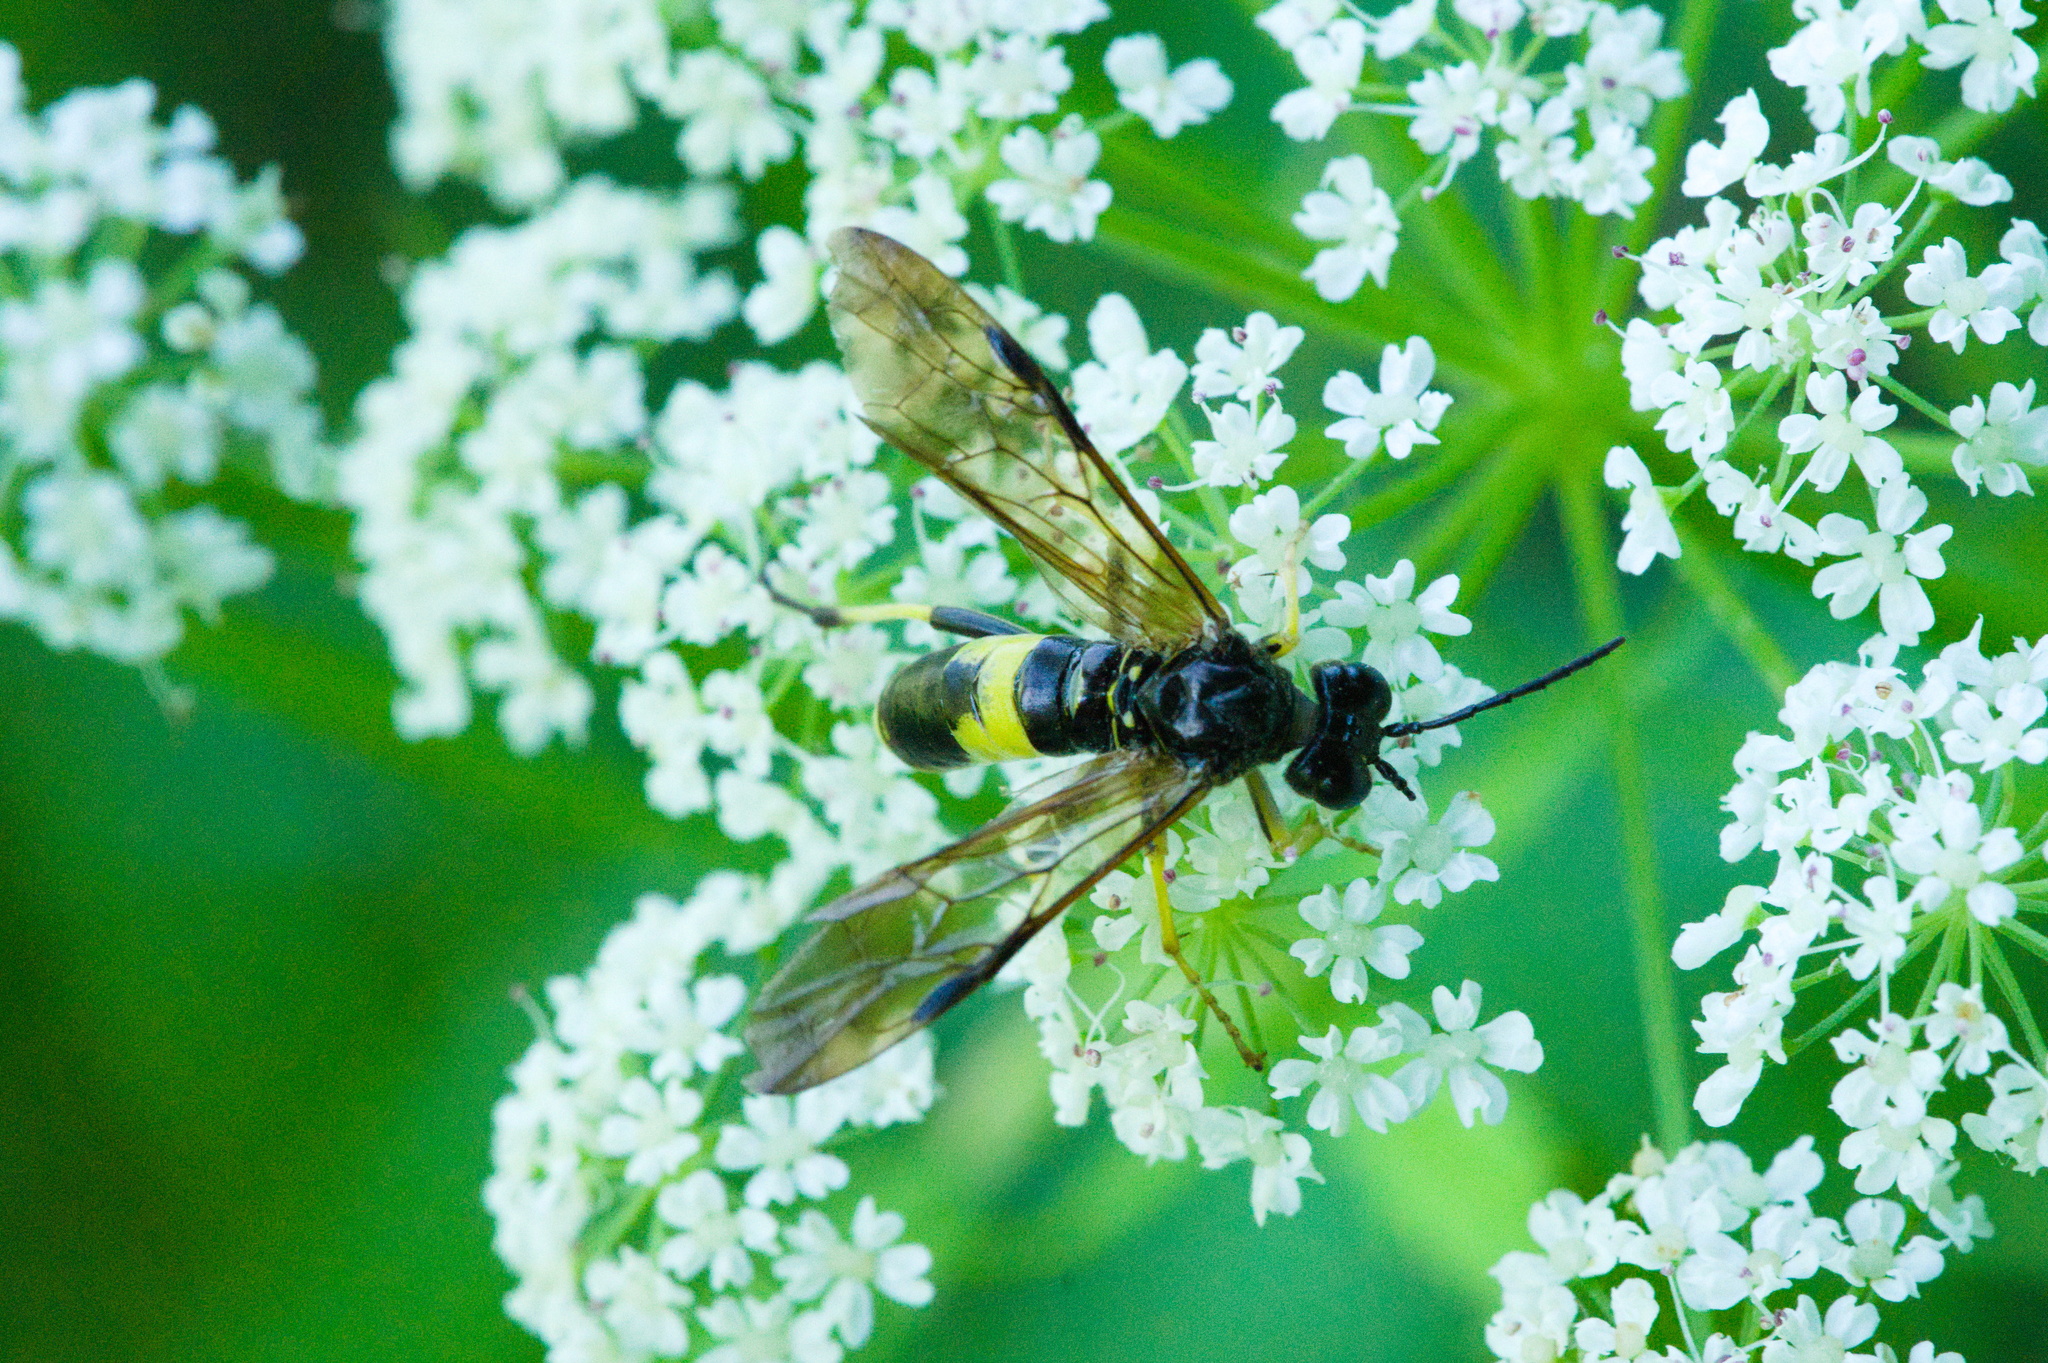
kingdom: Animalia
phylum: Arthropoda
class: Insecta
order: Hymenoptera
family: Tenthredinidae
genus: Tenthredo
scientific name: Tenthredo temula
